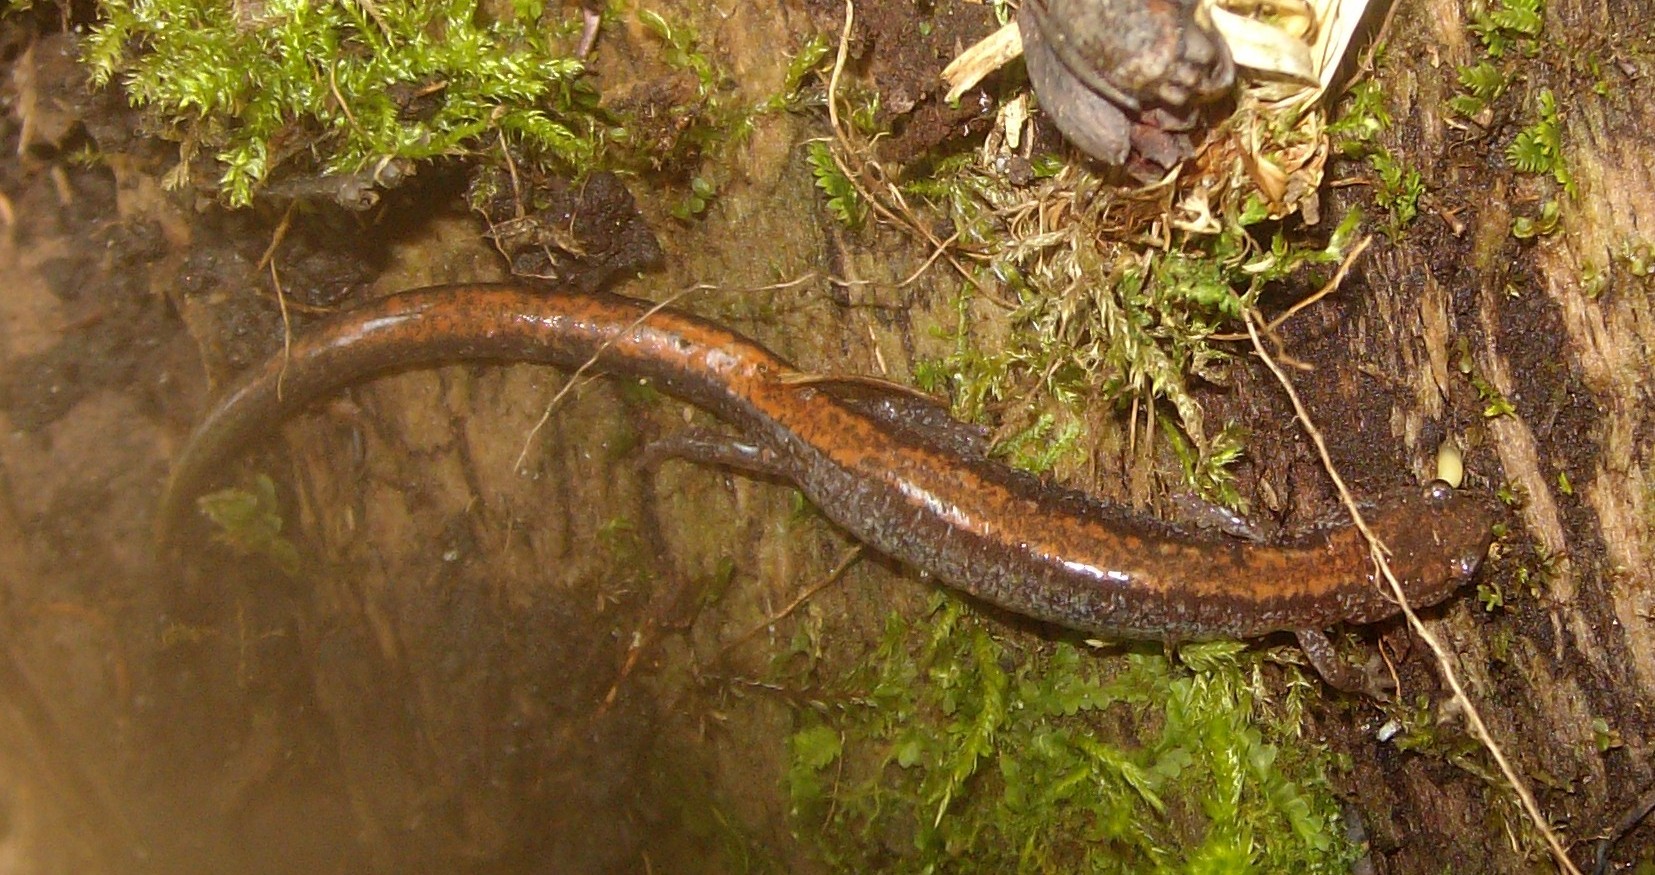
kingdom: Animalia
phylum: Chordata
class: Amphibia
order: Caudata
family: Plethodontidae
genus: Plethodon
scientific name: Plethodon cinereus
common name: Redback salamander
